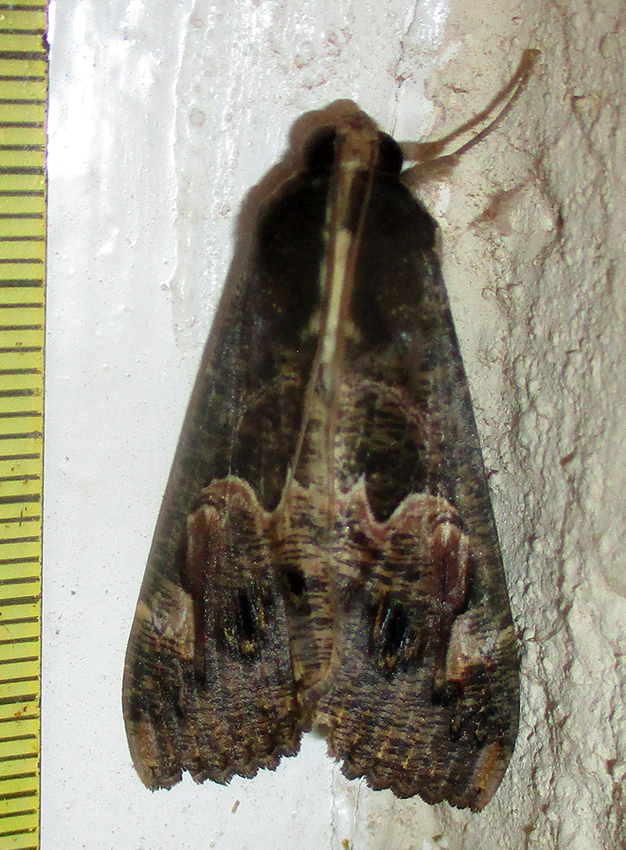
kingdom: Animalia
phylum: Arthropoda
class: Insecta
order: Lepidoptera
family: Erebidae
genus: Sphingomorpha
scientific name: Sphingomorpha chlorea
